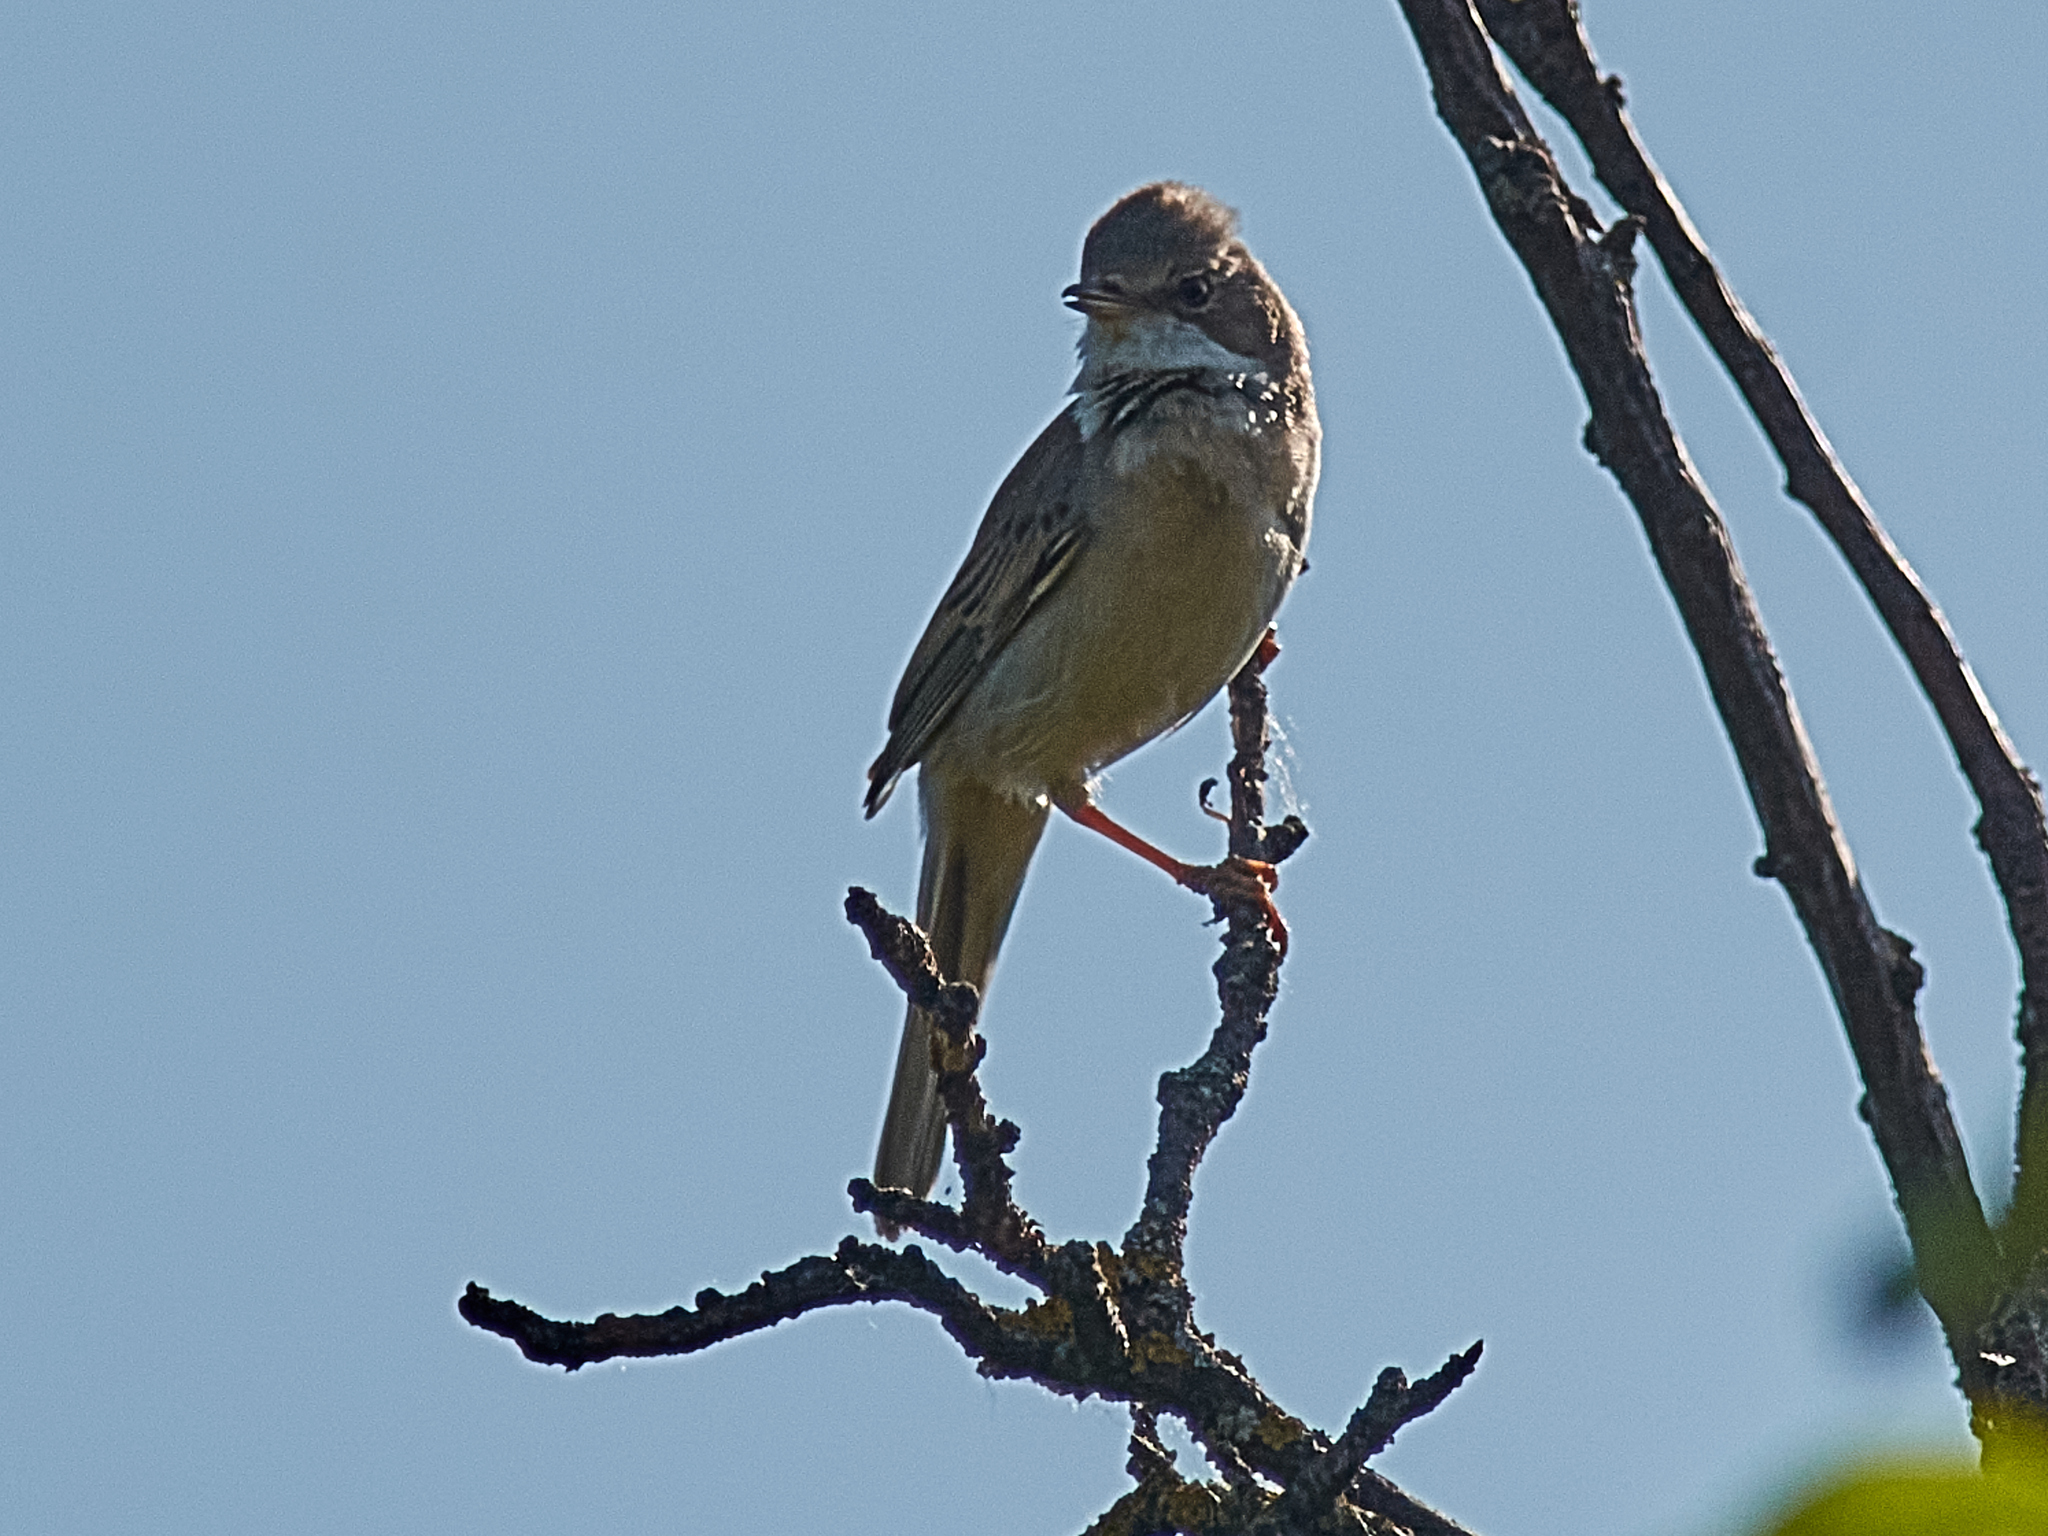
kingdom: Animalia
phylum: Chordata
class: Aves
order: Passeriformes
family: Sylviidae
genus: Sylvia
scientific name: Sylvia communis
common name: Common whitethroat
